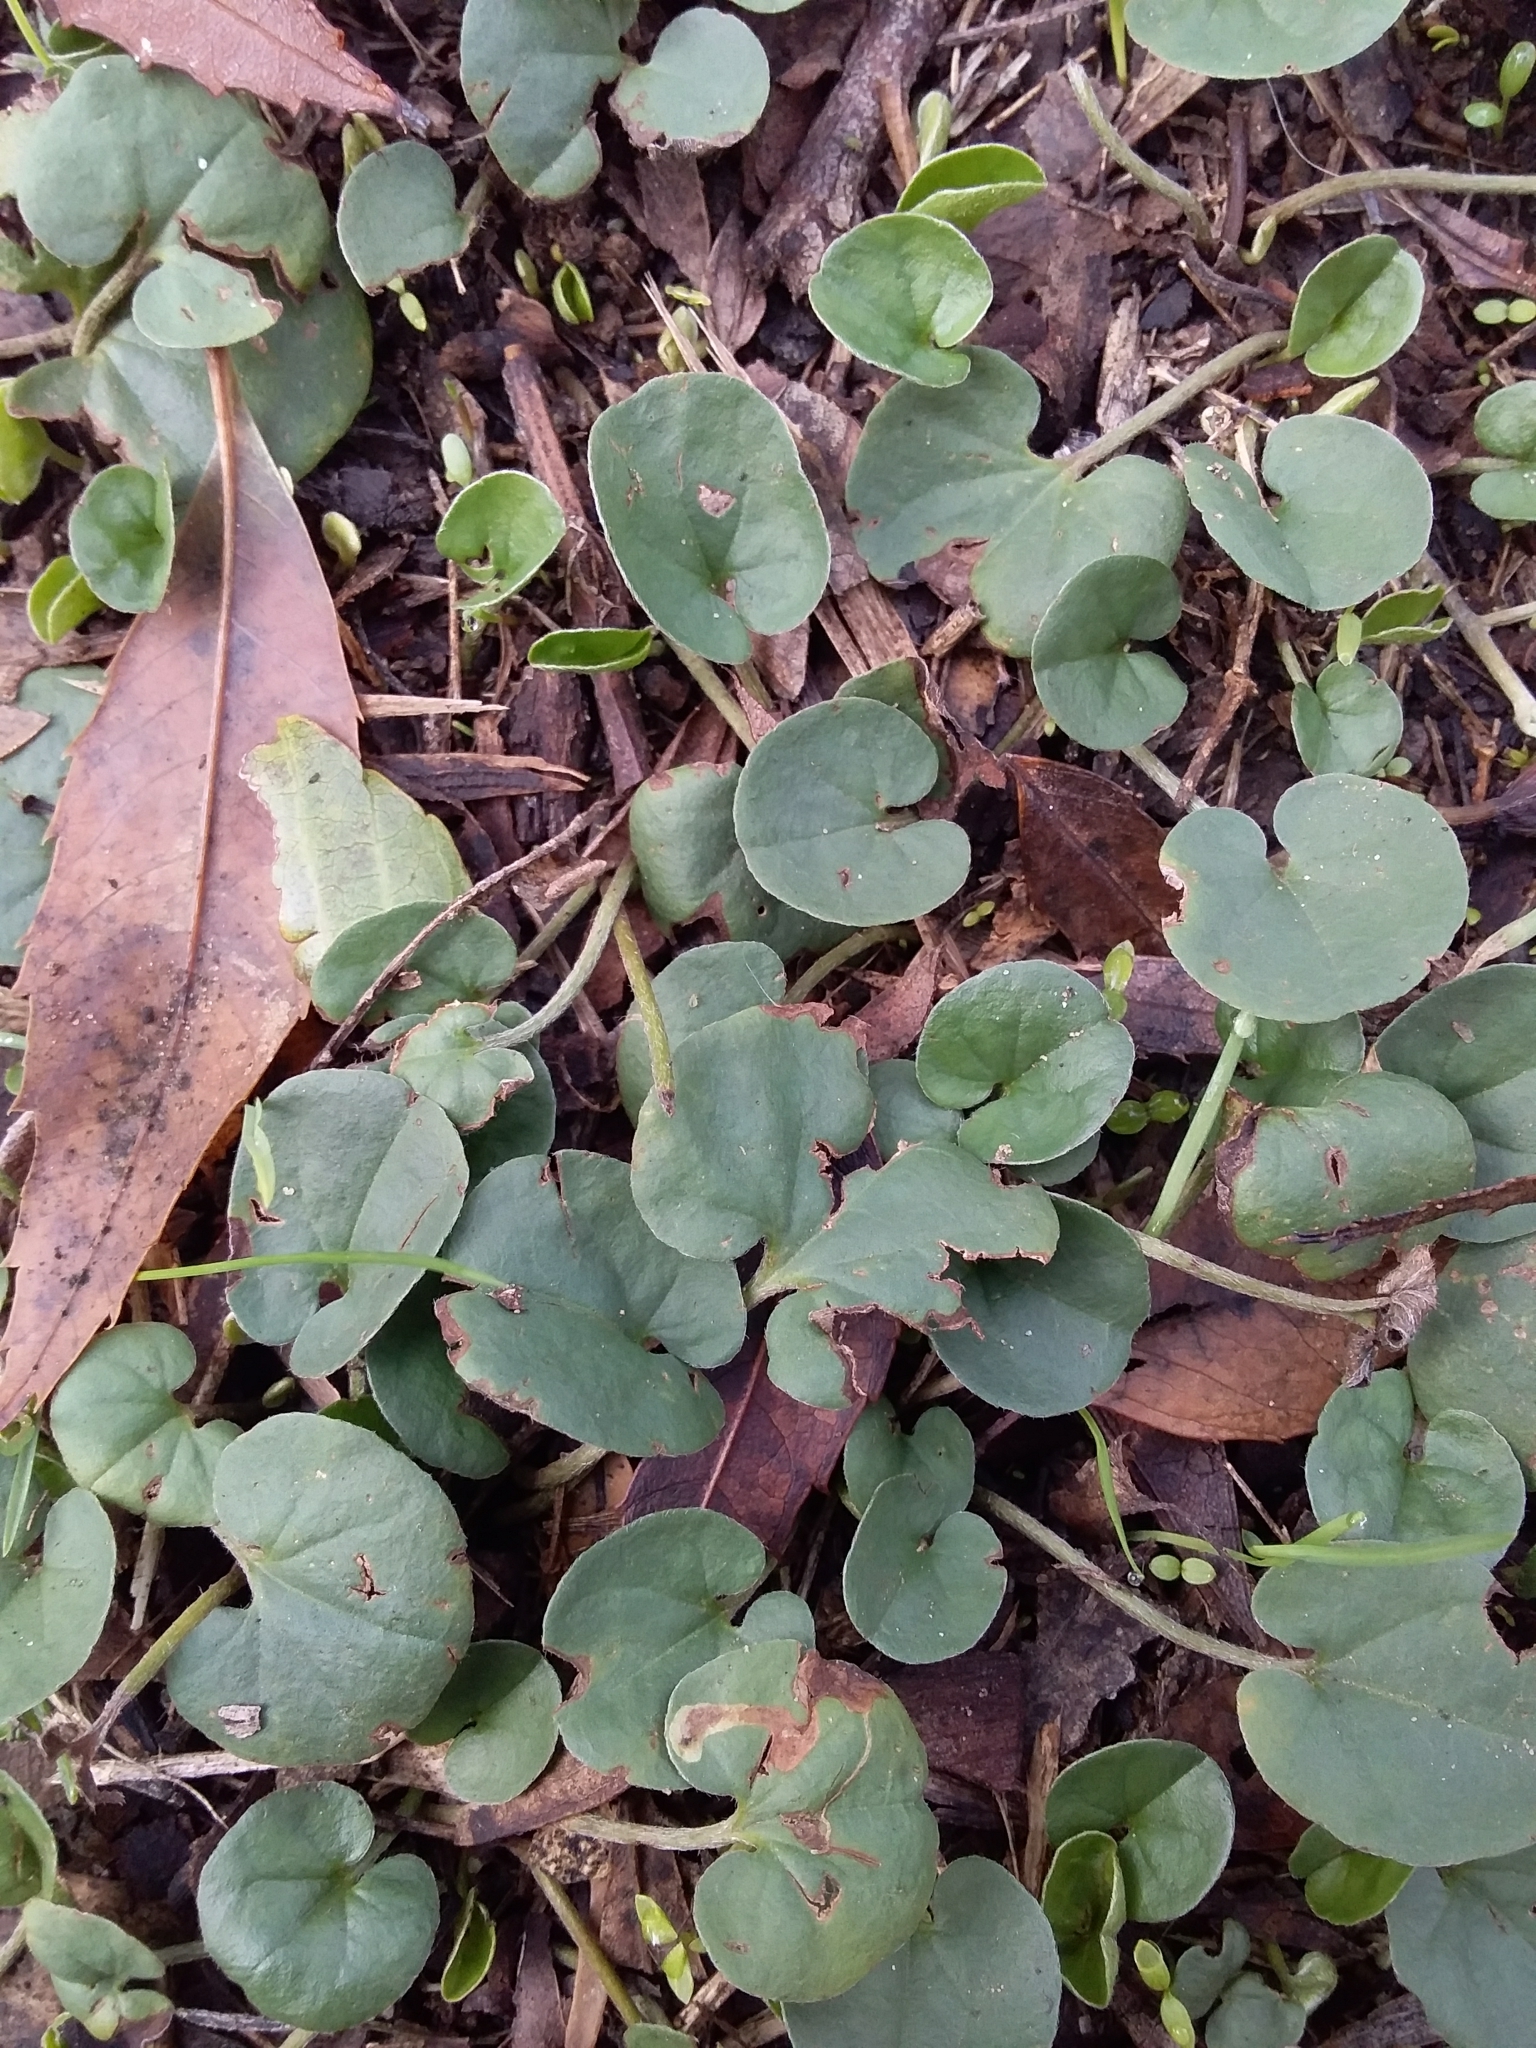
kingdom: Plantae
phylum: Tracheophyta
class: Magnoliopsida
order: Solanales
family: Convolvulaceae
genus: Dichondra
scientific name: Dichondra repens
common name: Kidneyweed
